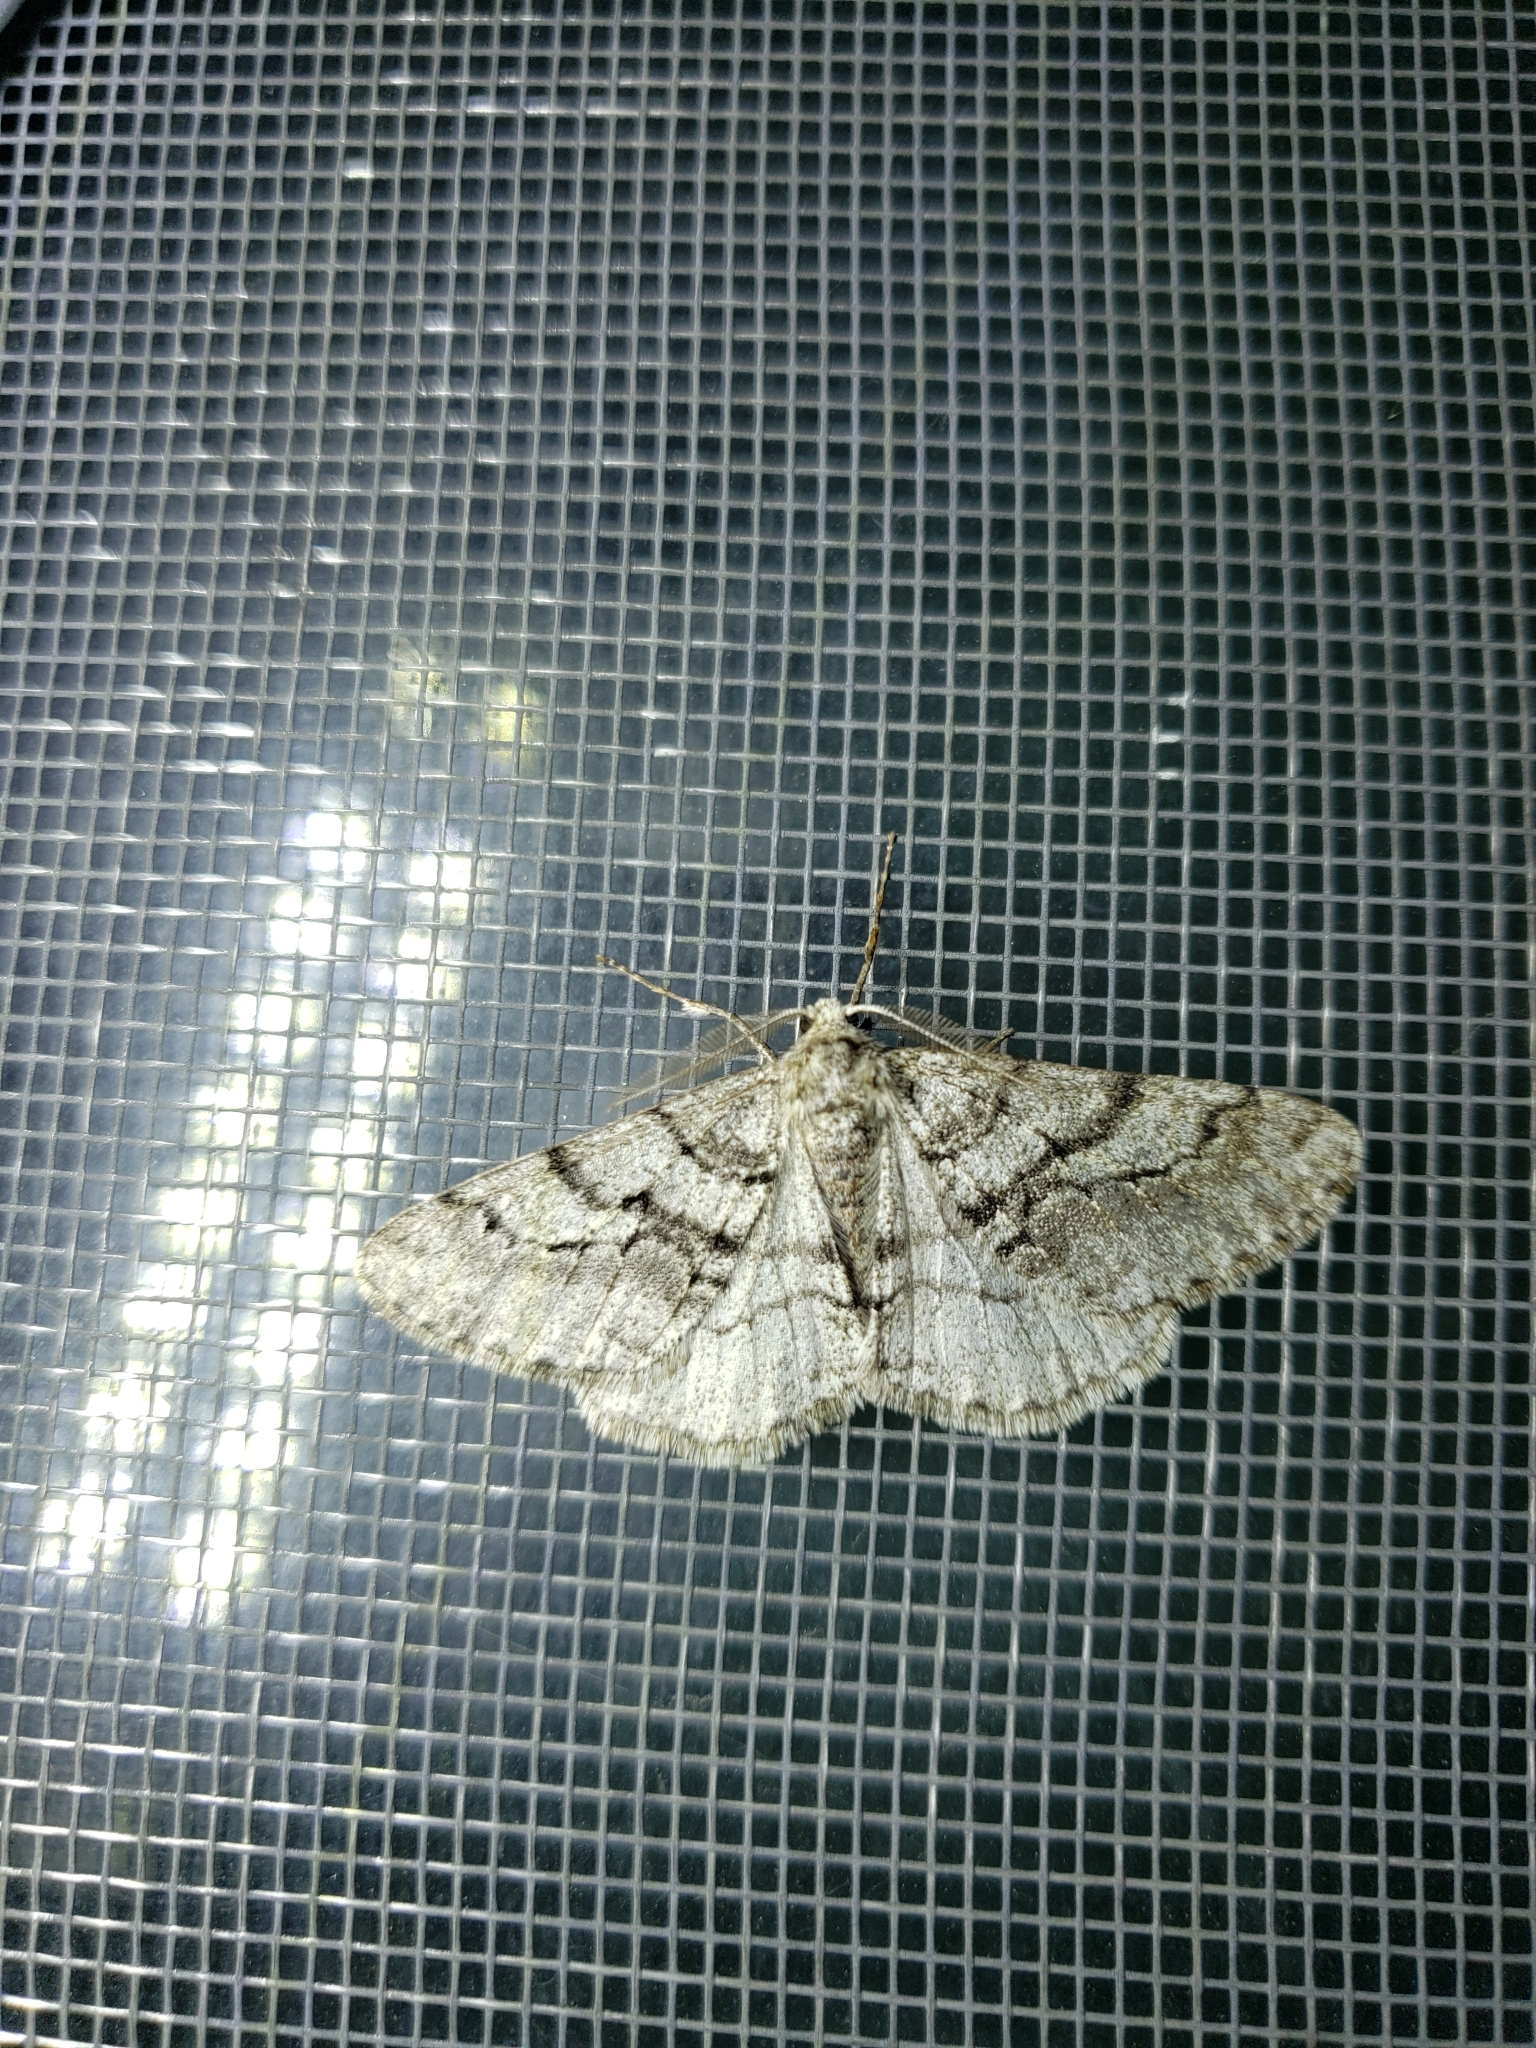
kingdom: Animalia
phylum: Arthropoda
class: Insecta
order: Lepidoptera
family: Geometridae
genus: Phigalia
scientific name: Phigalia titea
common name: Spiny looper
